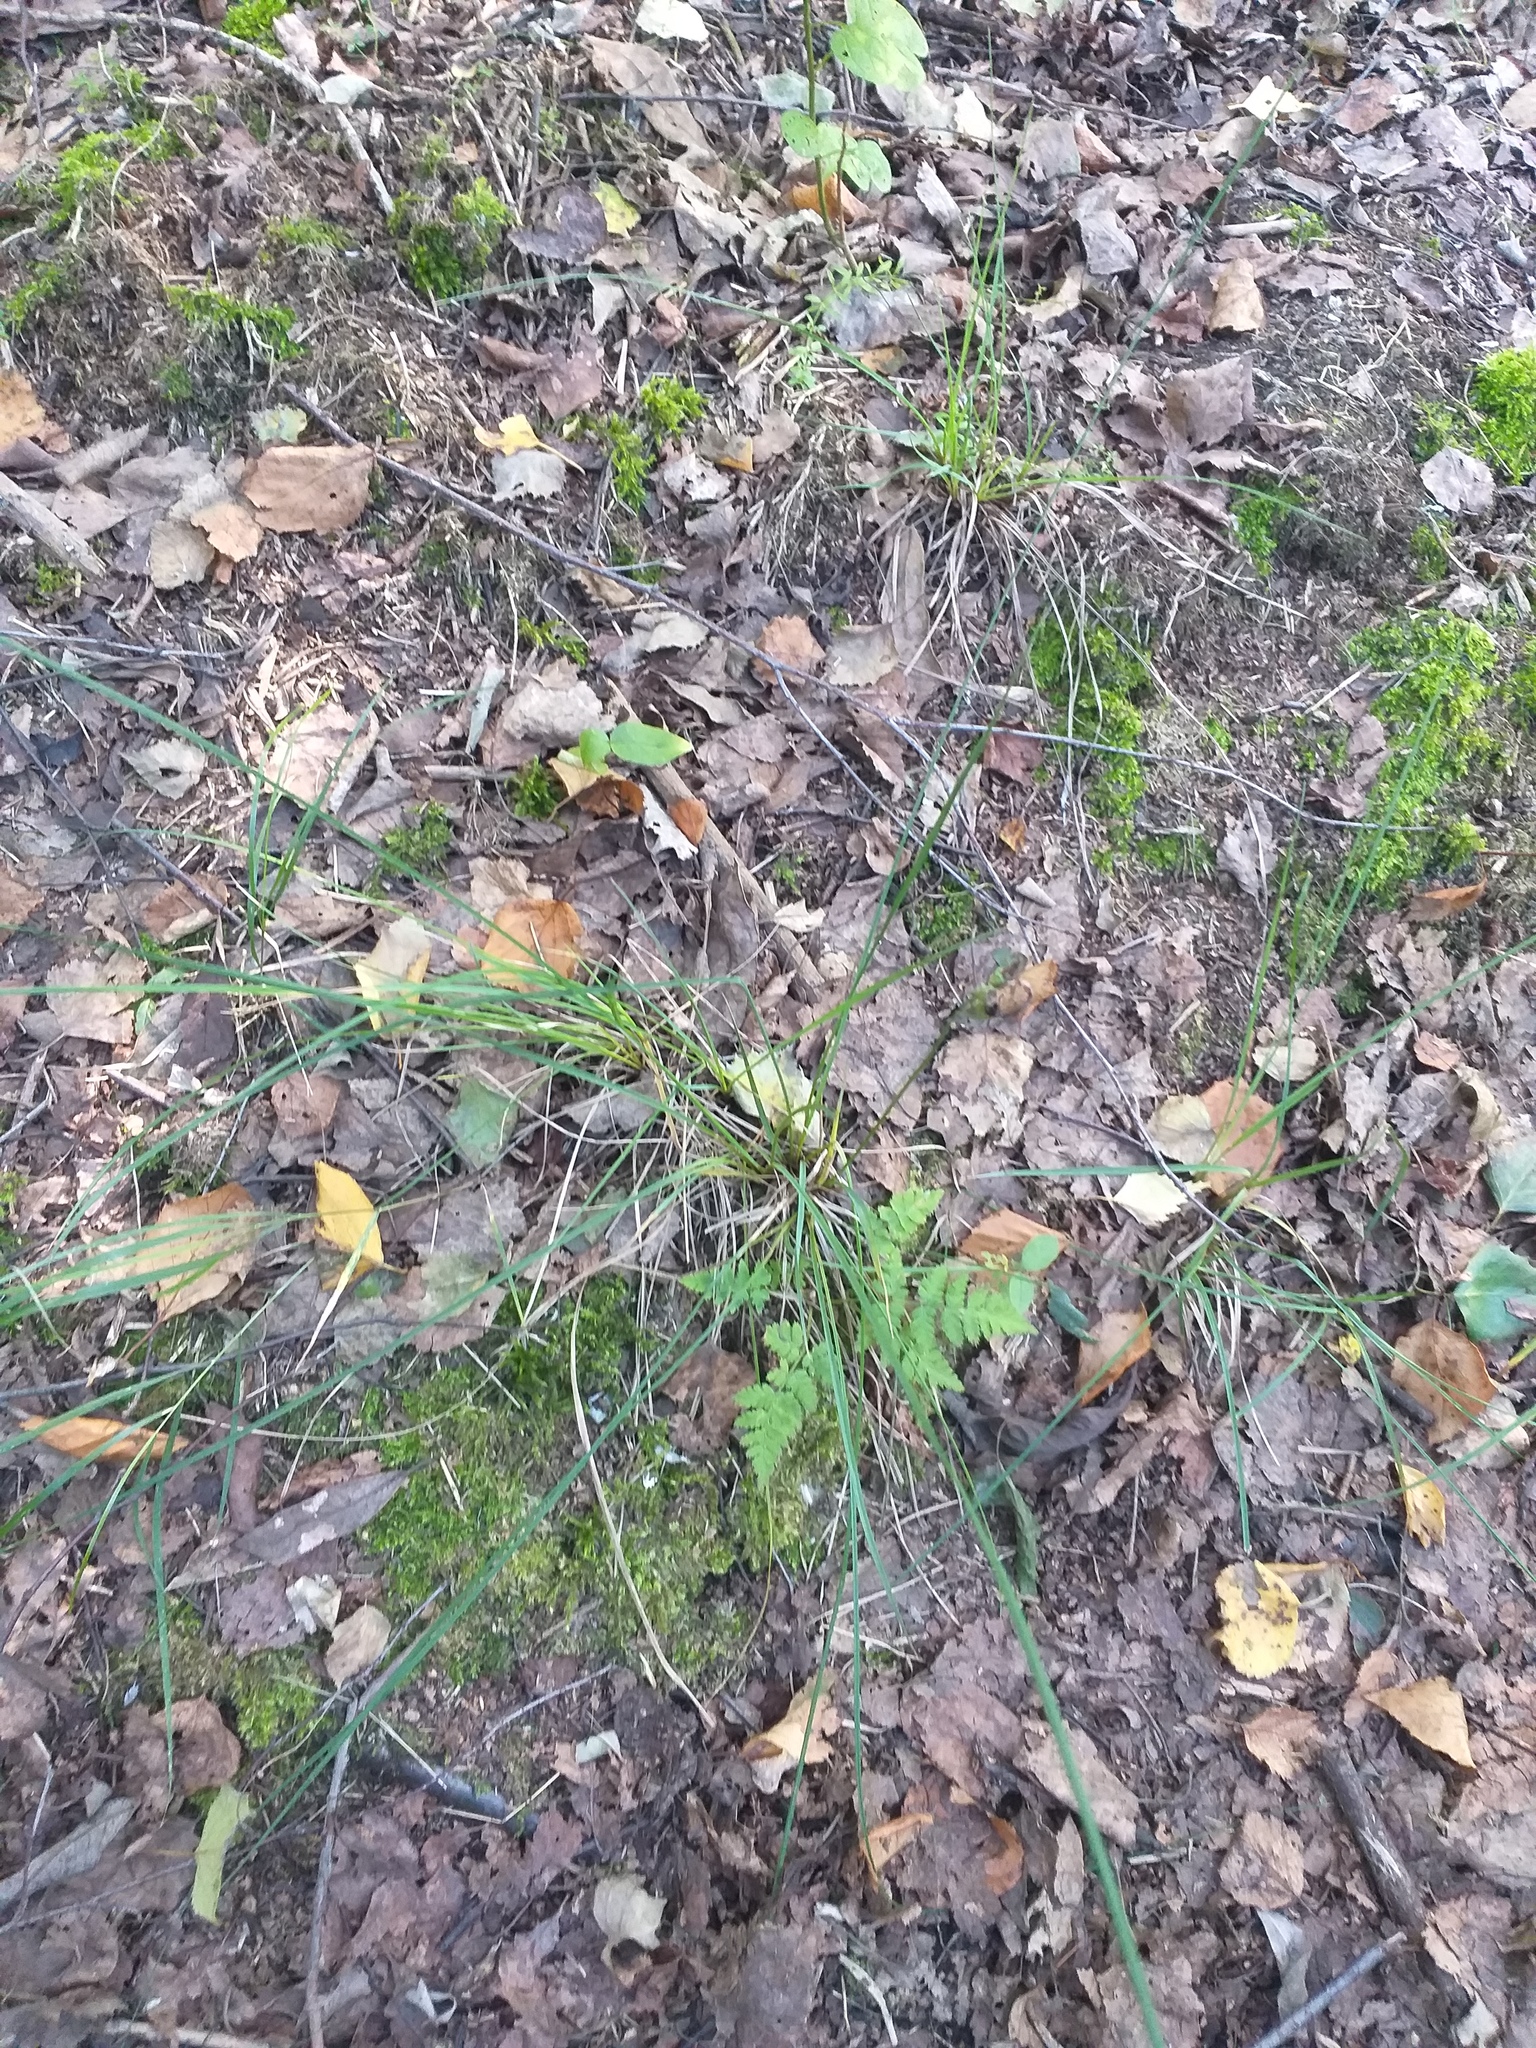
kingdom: Plantae
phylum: Tracheophyta
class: Liliopsida
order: Poales
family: Cyperaceae
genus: Carex
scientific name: Carex nigra
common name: Common sedge
